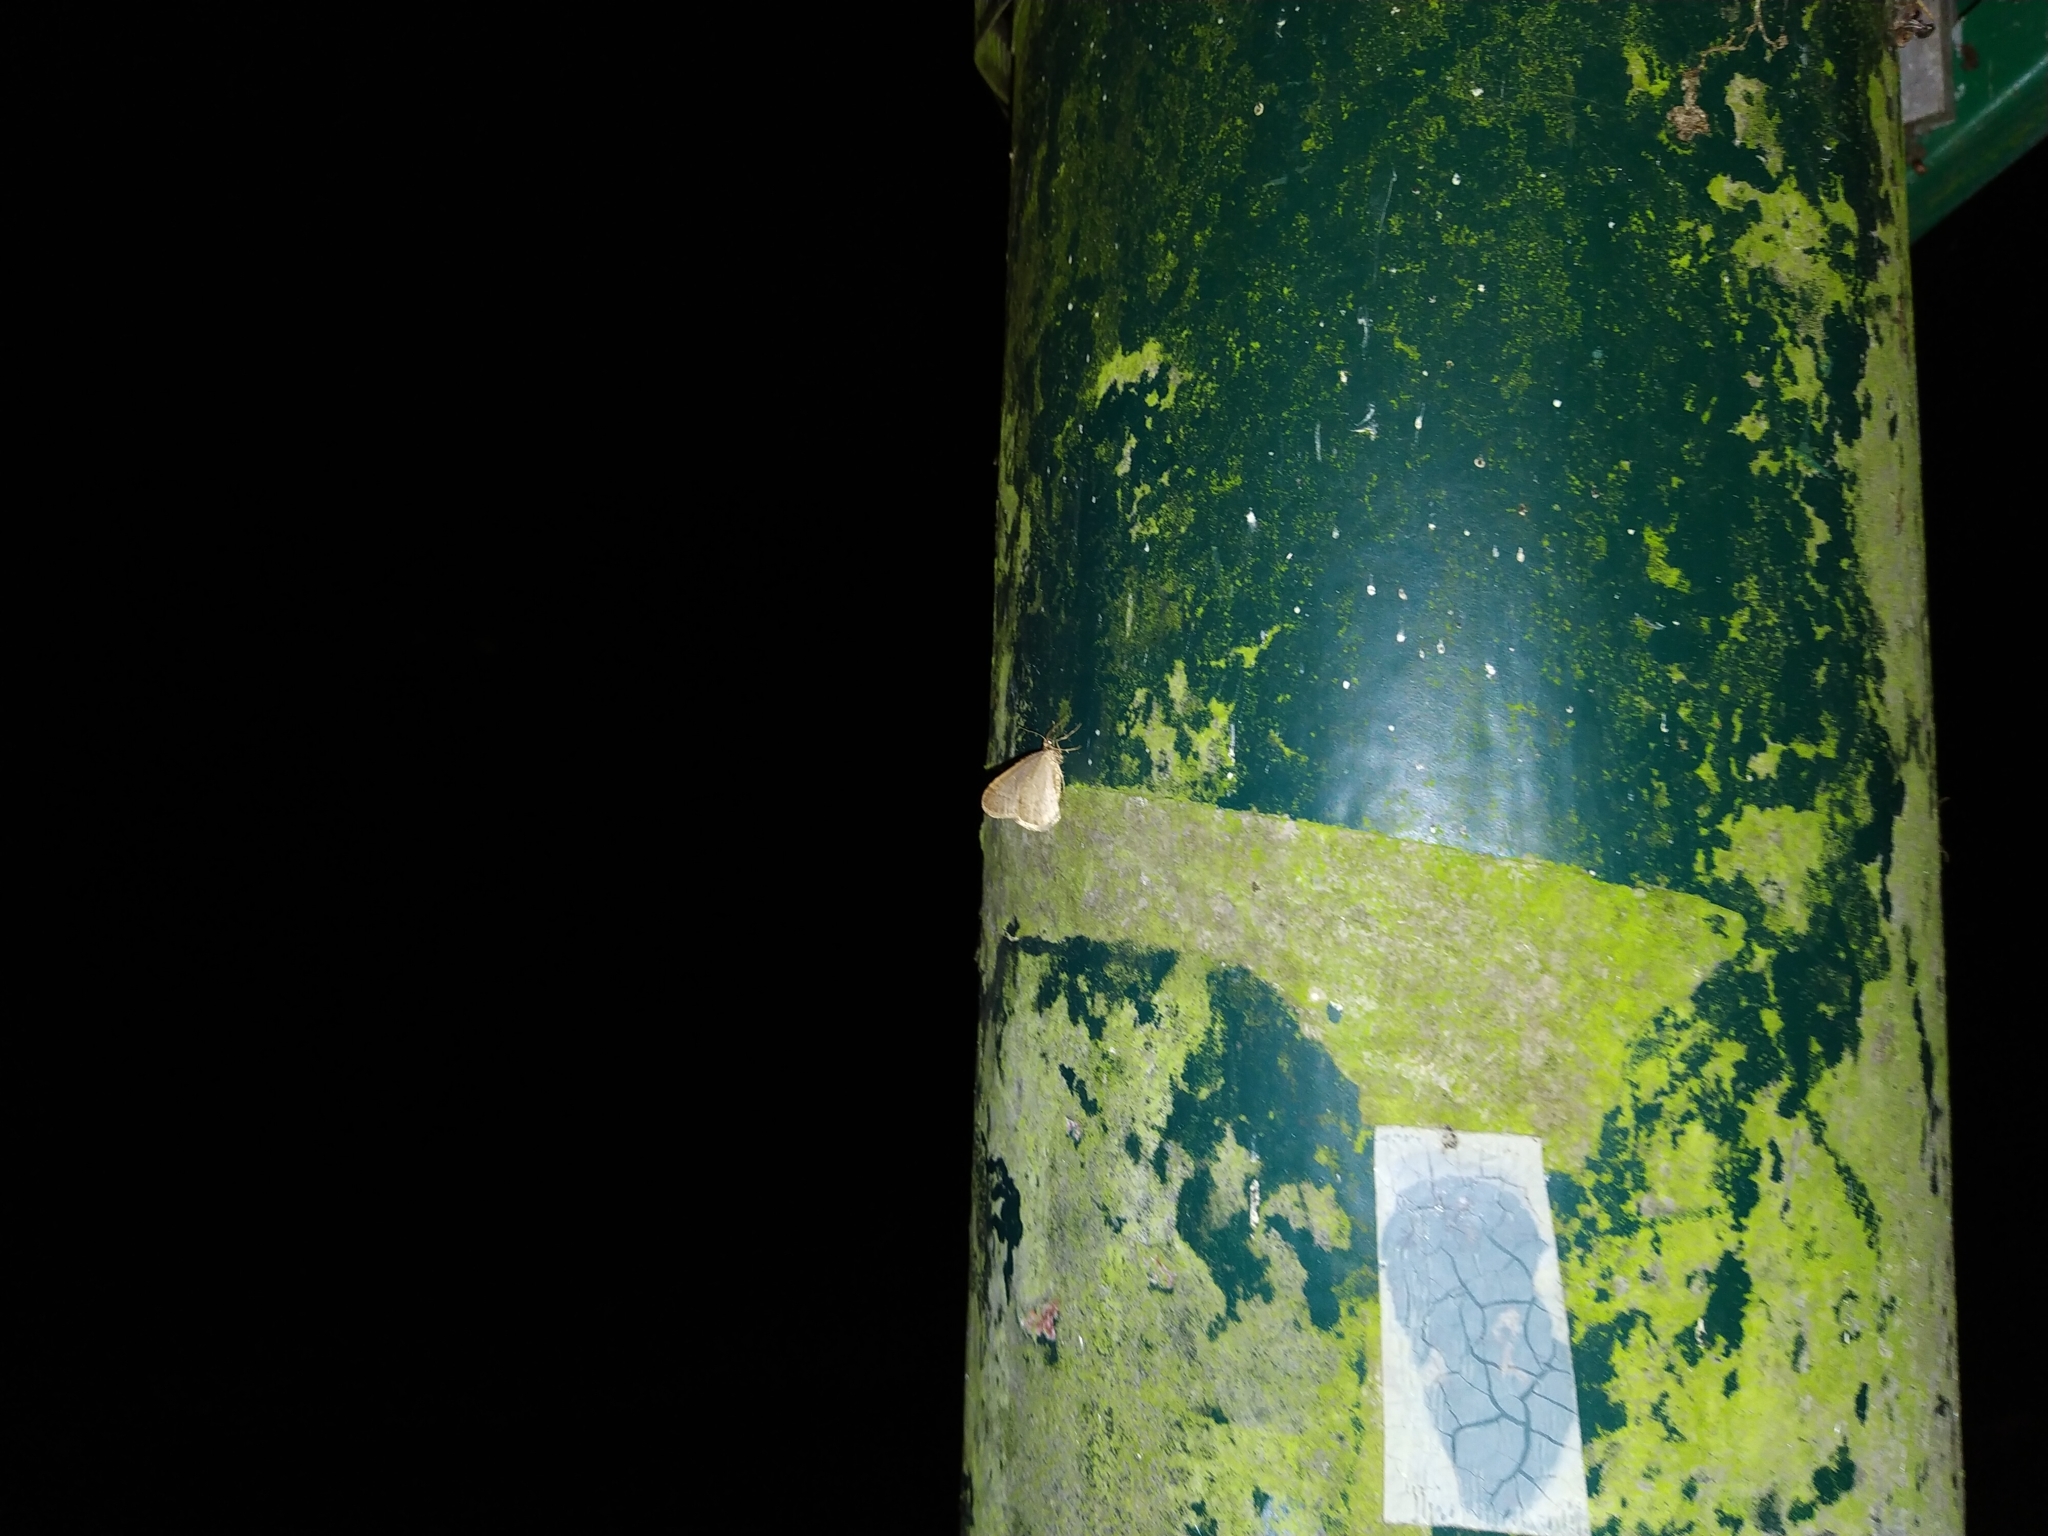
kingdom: Animalia
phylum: Arthropoda
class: Insecta
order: Lepidoptera
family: Geometridae
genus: Operophtera
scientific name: Operophtera brumata
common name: Winter moth
